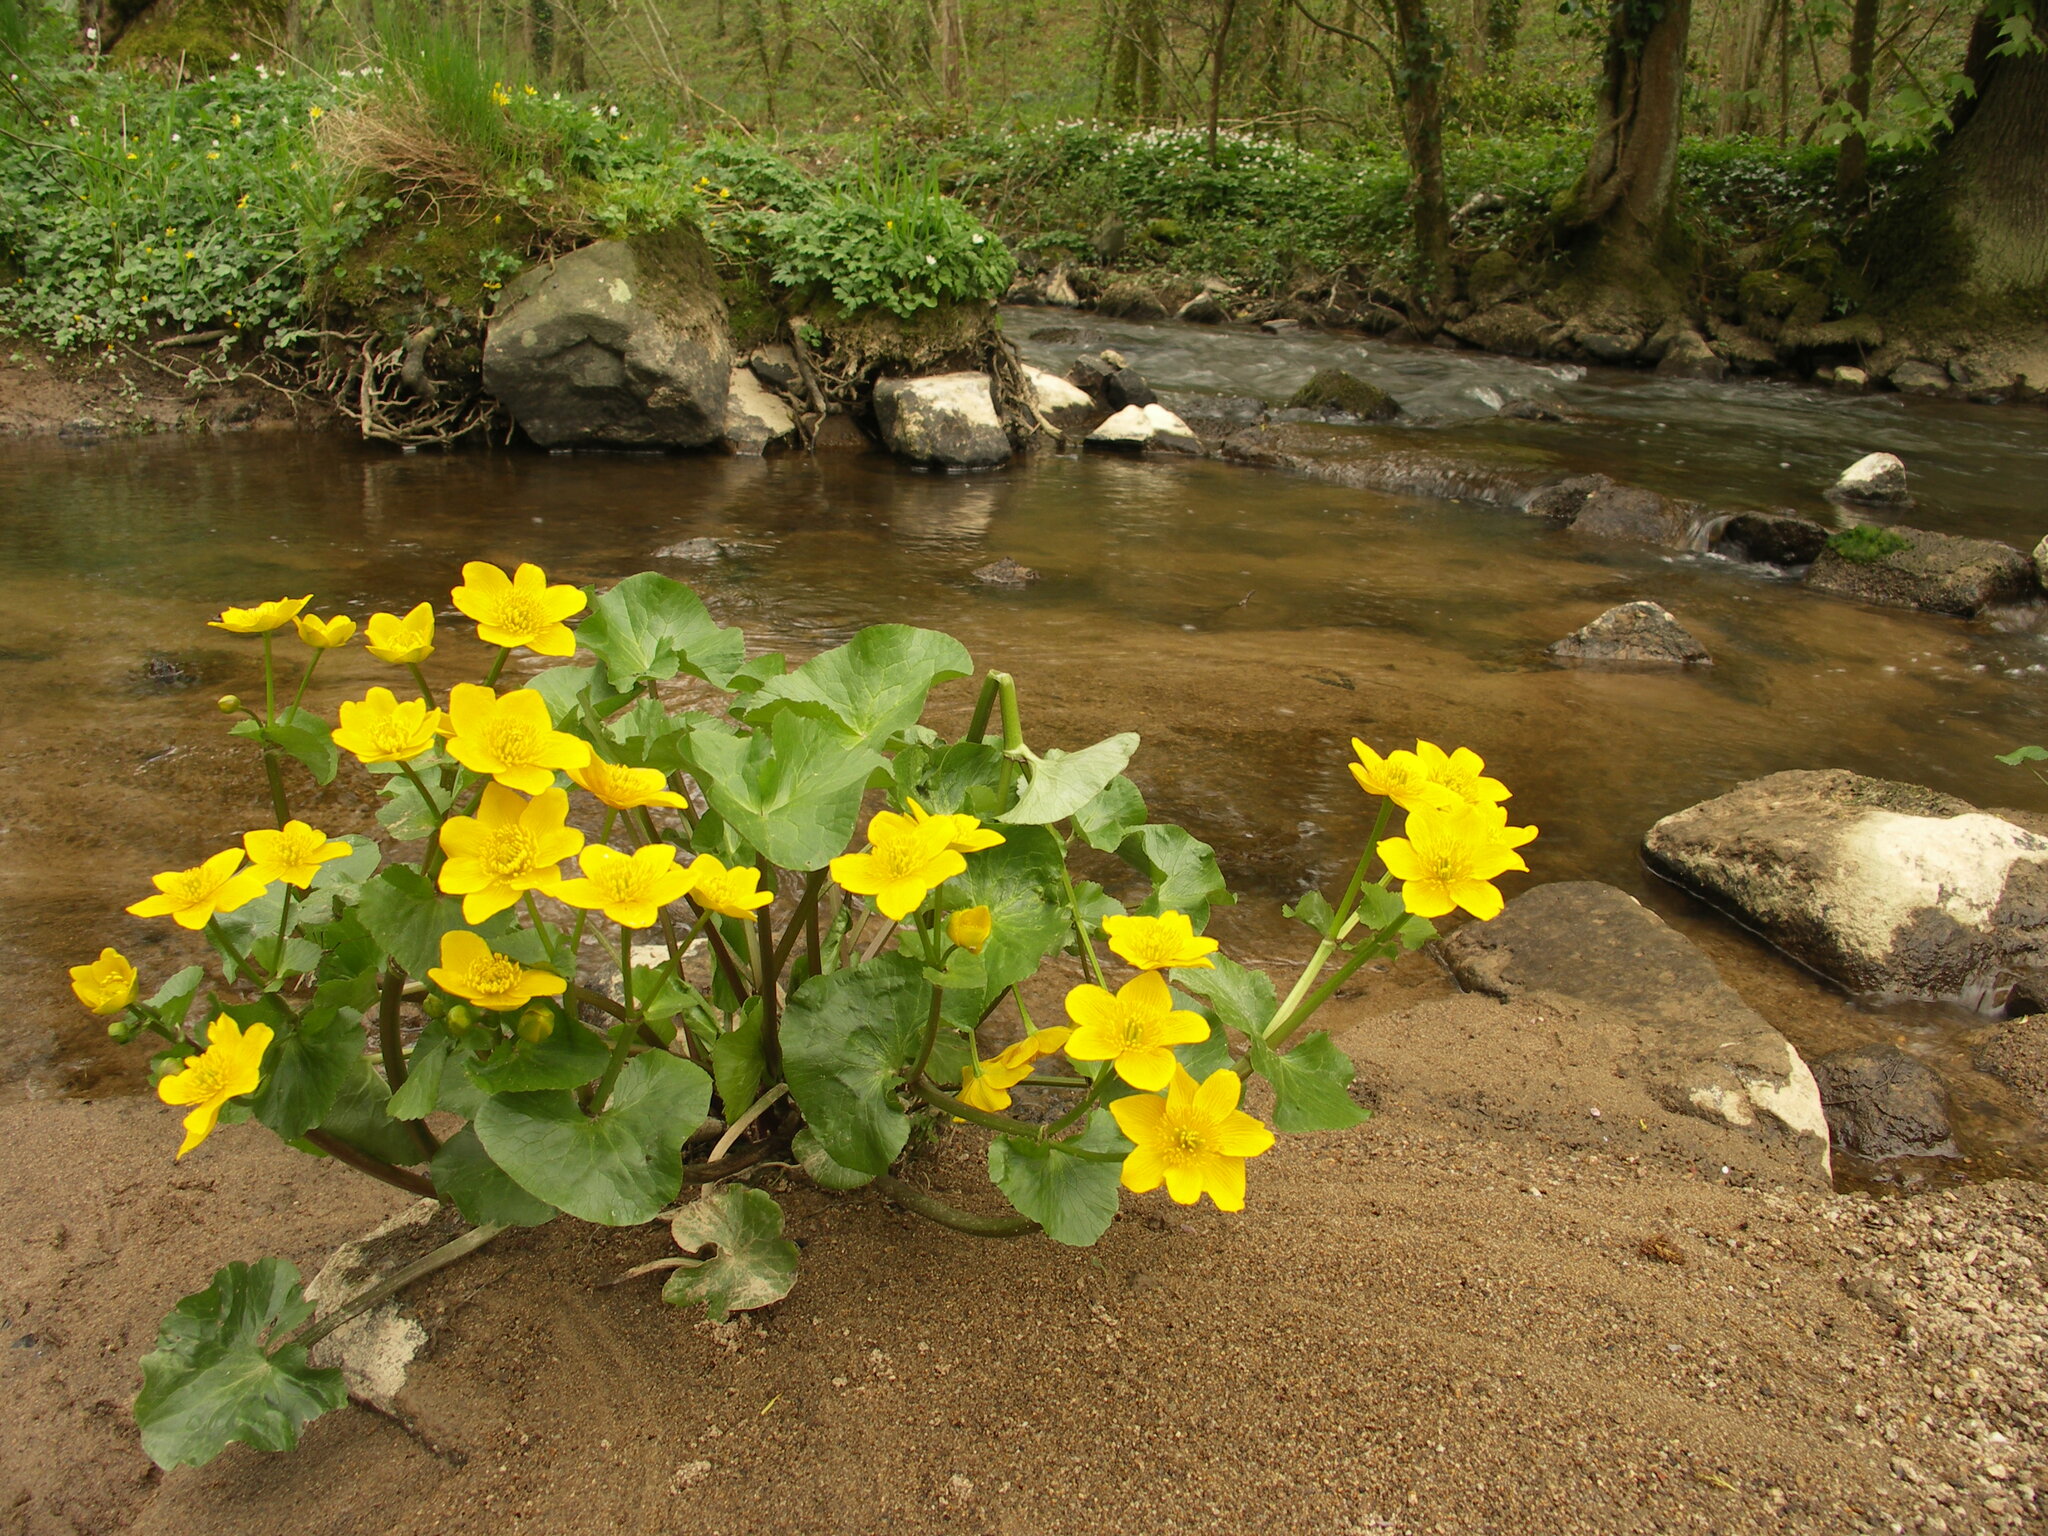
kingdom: Plantae
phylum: Tracheophyta
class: Magnoliopsida
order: Ranunculales
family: Ranunculaceae
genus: Caltha
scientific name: Caltha palustris
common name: Marsh marigold
